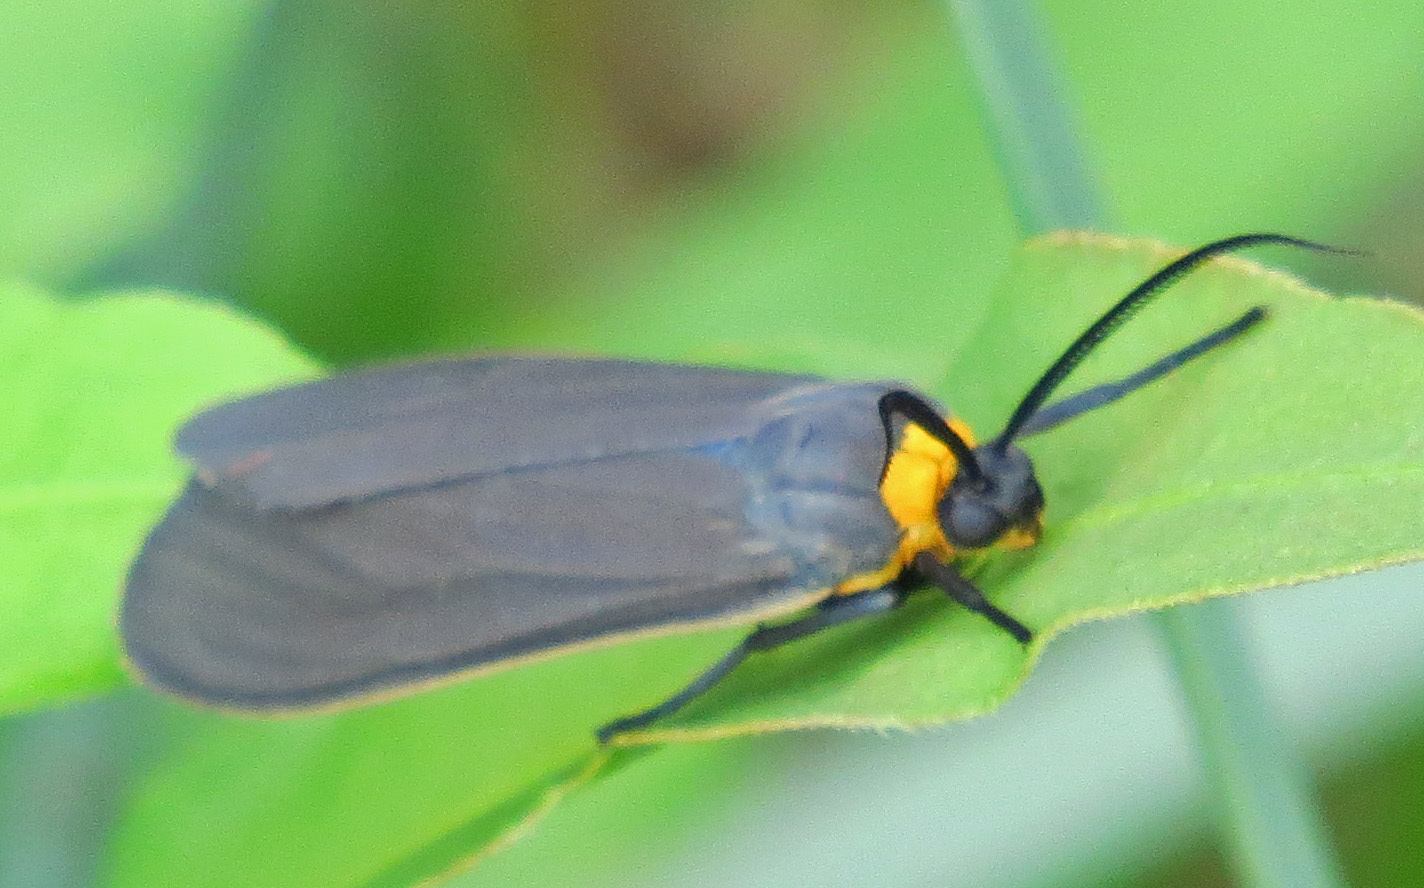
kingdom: Animalia
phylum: Arthropoda
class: Insecta
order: Lepidoptera
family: Erebidae
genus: Cisseps
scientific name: Cisseps fulvicollis
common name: Yellow-collared scape moth
